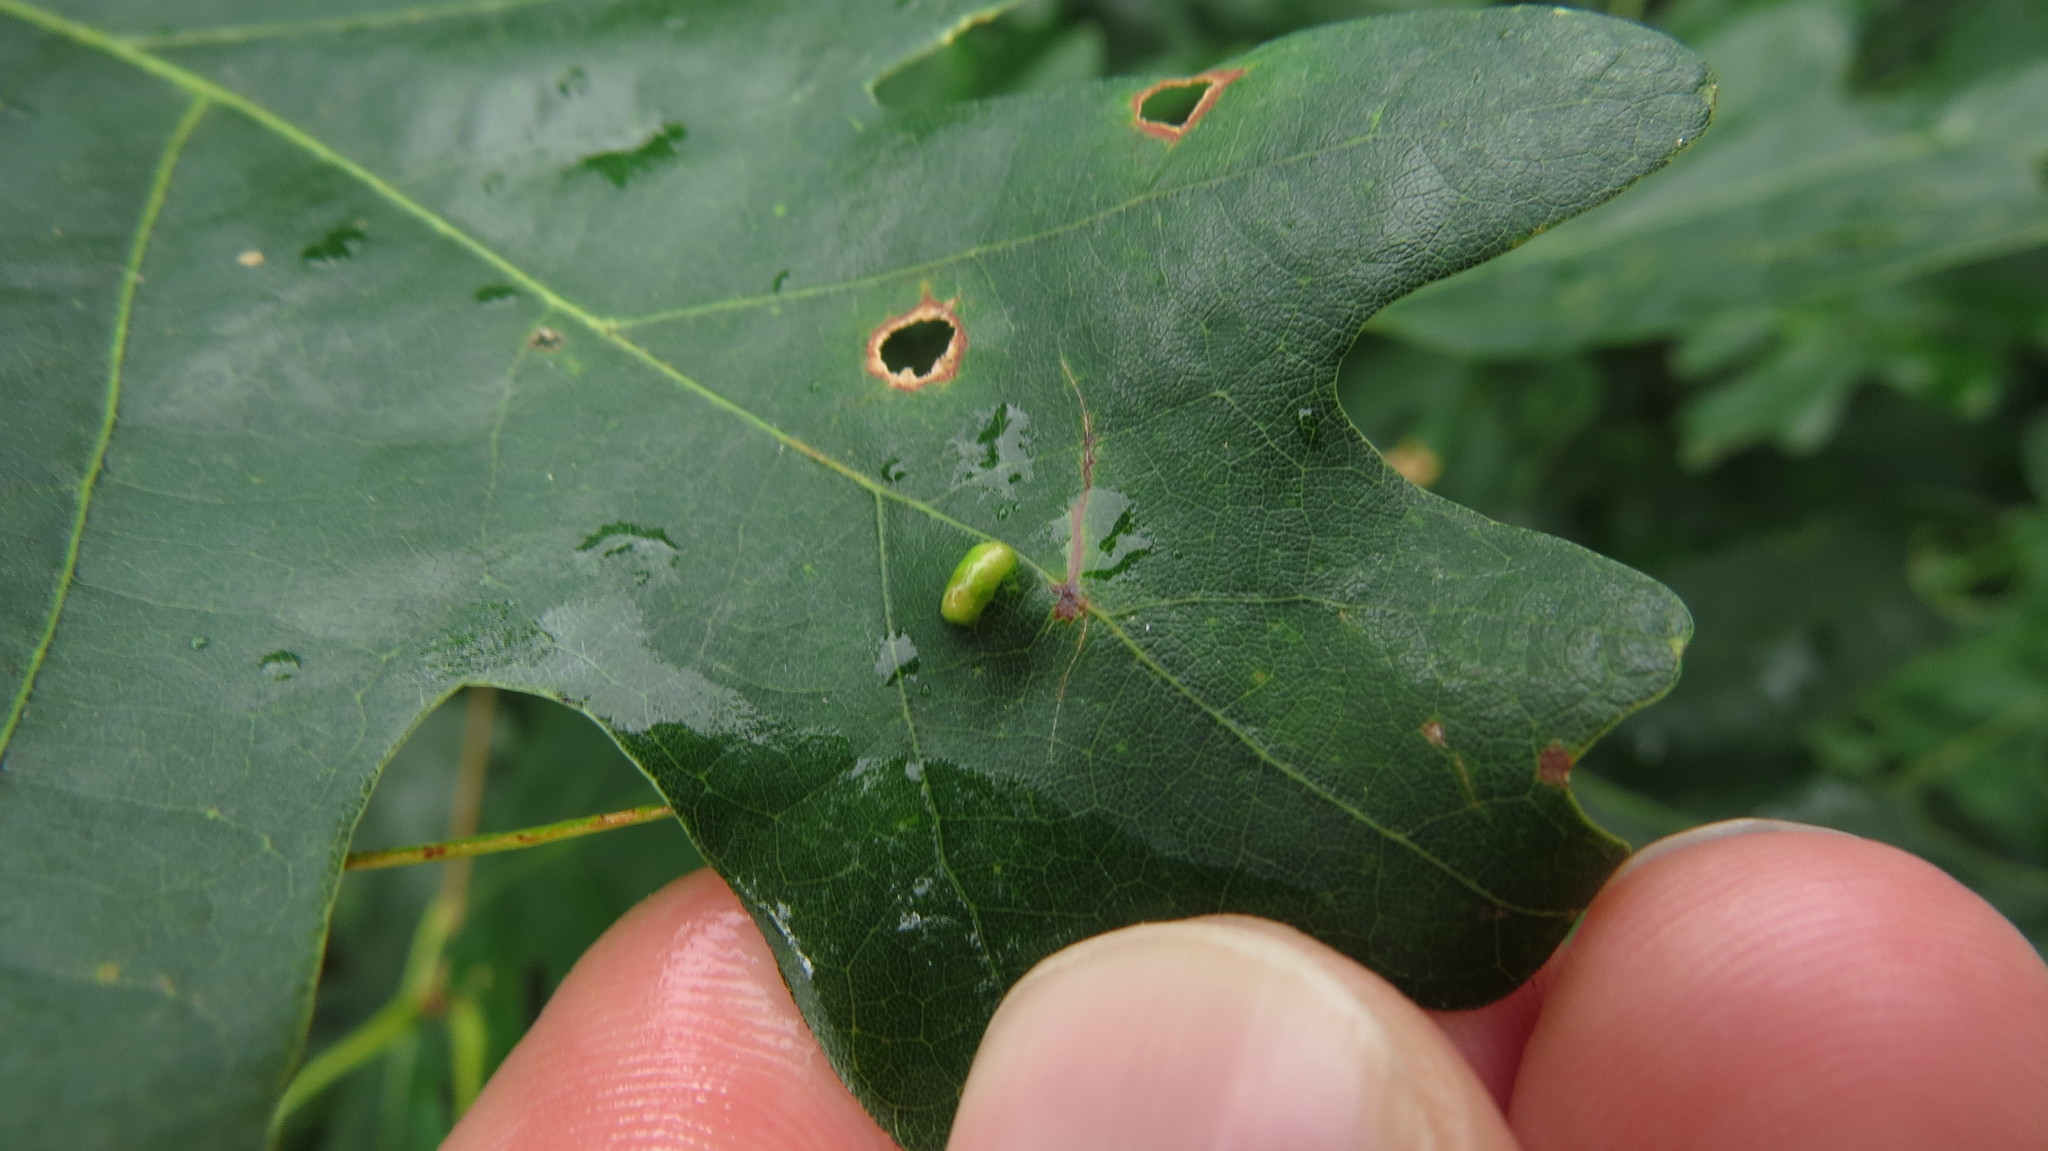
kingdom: Animalia
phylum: Arthropoda
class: Arachnida
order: Trombidiformes
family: Eriophyidae
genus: Aceria
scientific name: Aceria
